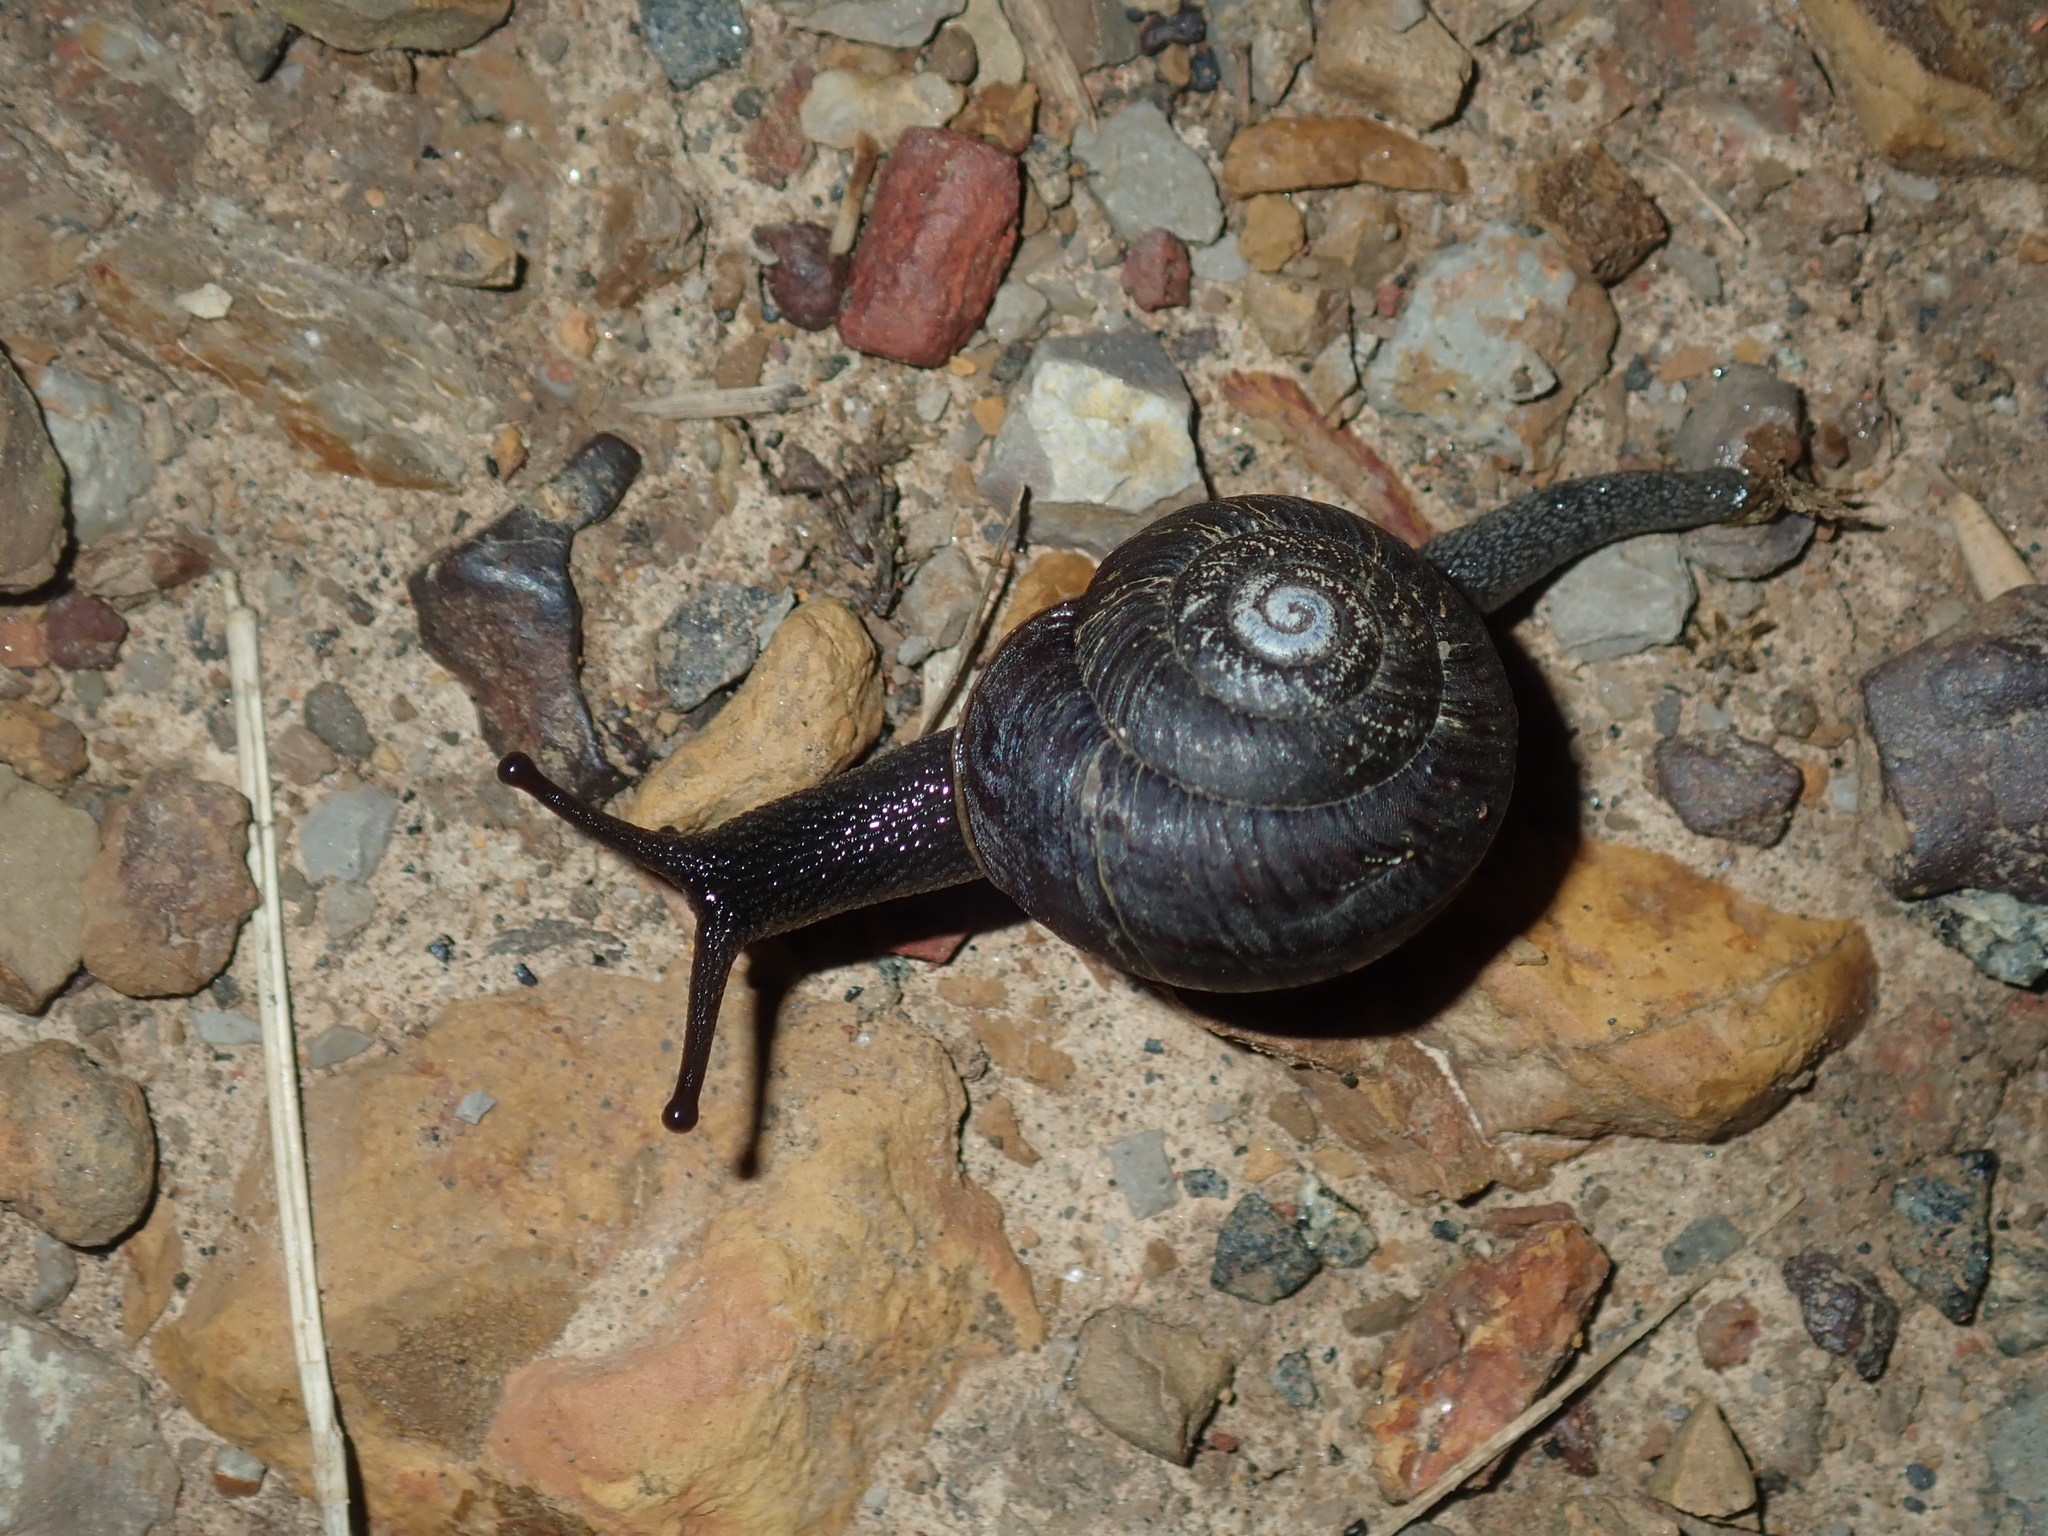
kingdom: Animalia
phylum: Mollusca
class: Gastropoda
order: Stylommatophora
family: Camaenidae
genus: Sauroconcha
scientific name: Sauroconcha sheai
